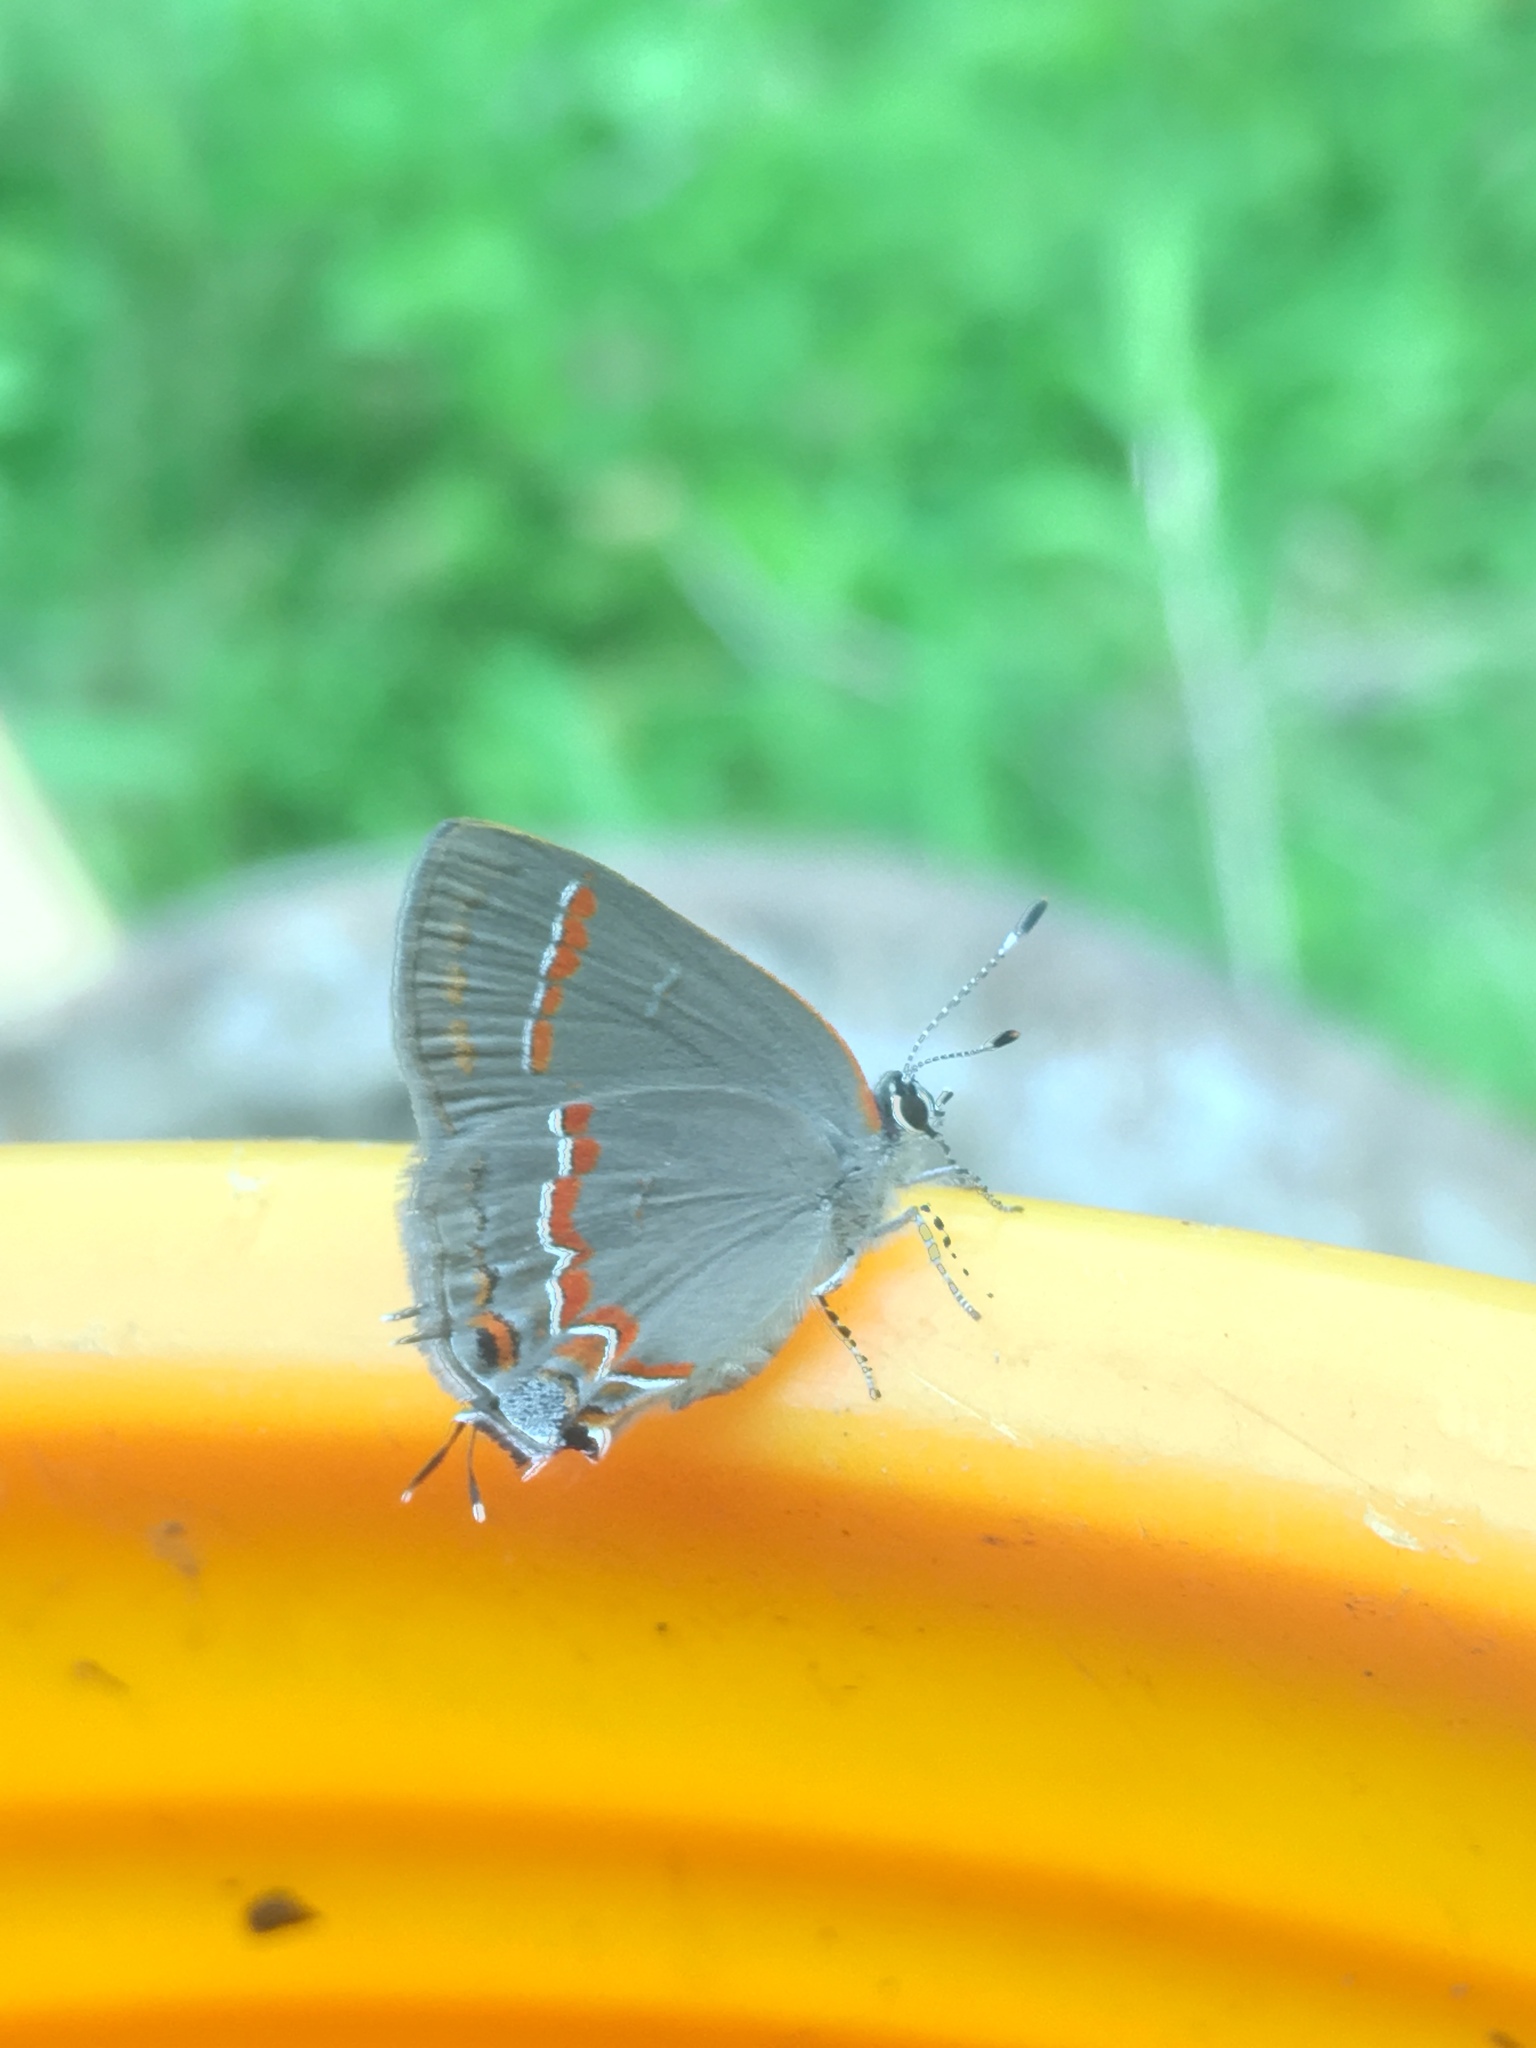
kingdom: Animalia
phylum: Arthropoda
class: Insecta
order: Lepidoptera
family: Lycaenidae
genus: Calycopis
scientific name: Calycopis cecrops
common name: Red-banded hairstreak
